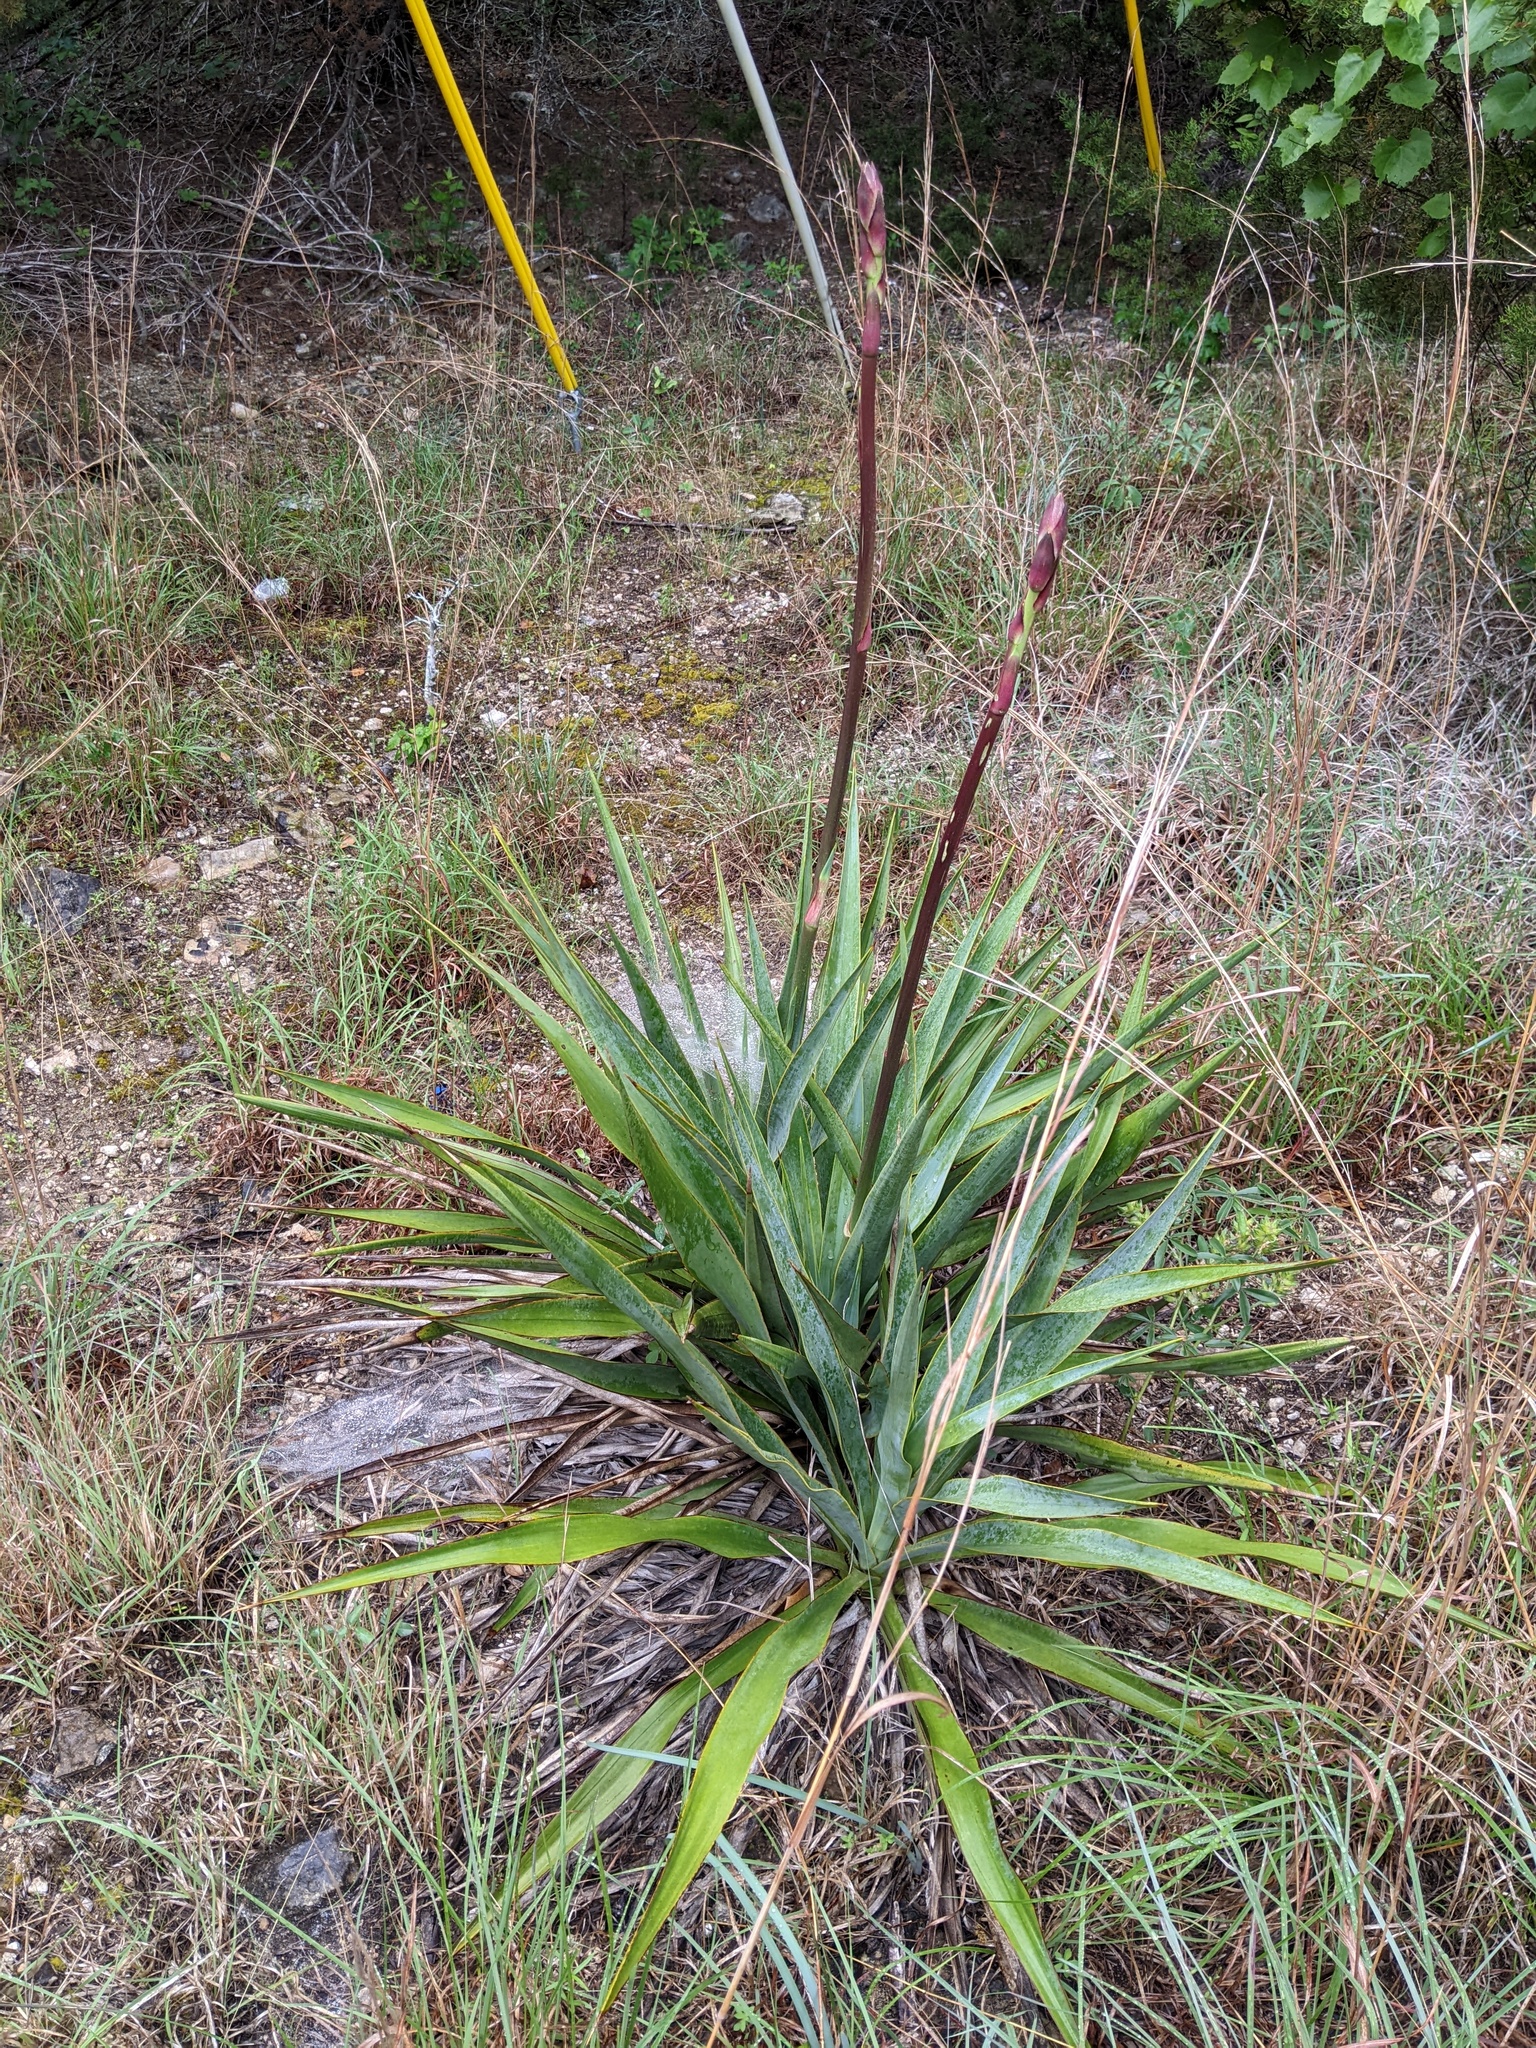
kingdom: Plantae
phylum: Tracheophyta
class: Liliopsida
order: Asparagales
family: Asparagaceae
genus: Yucca
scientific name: Yucca rupicola
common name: Twisted-leaf spanish-dagger
